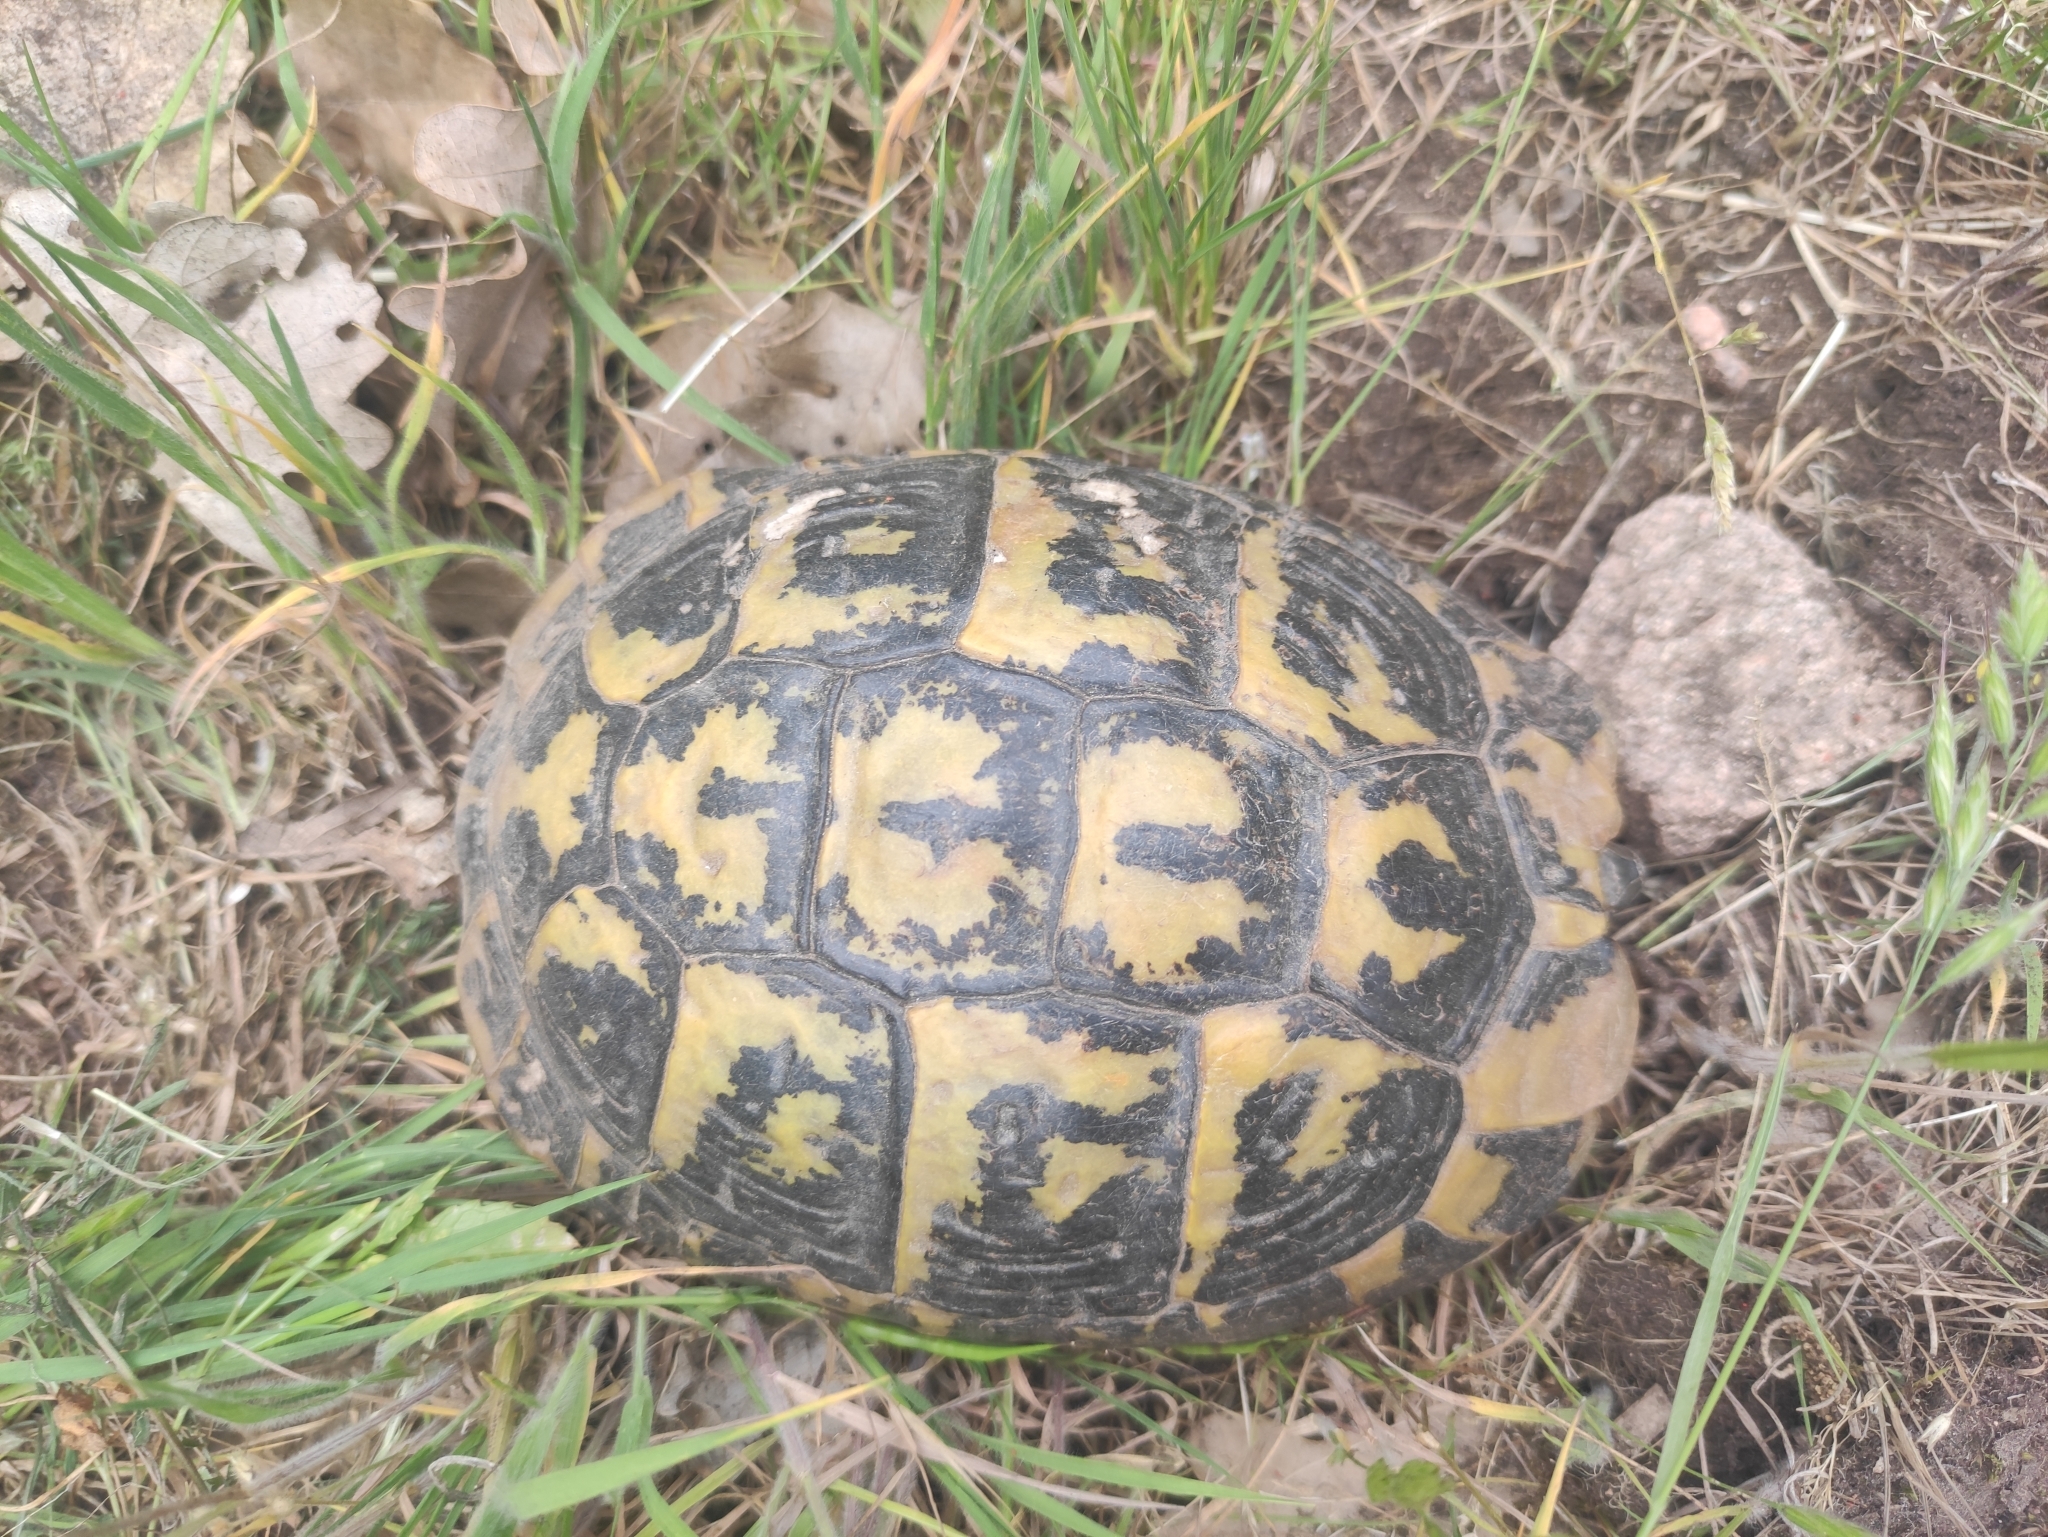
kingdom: Animalia
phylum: Chordata
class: Testudines
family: Testudinidae
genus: Testudo
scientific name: Testudo hermanni
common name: Hermann's tortoise
